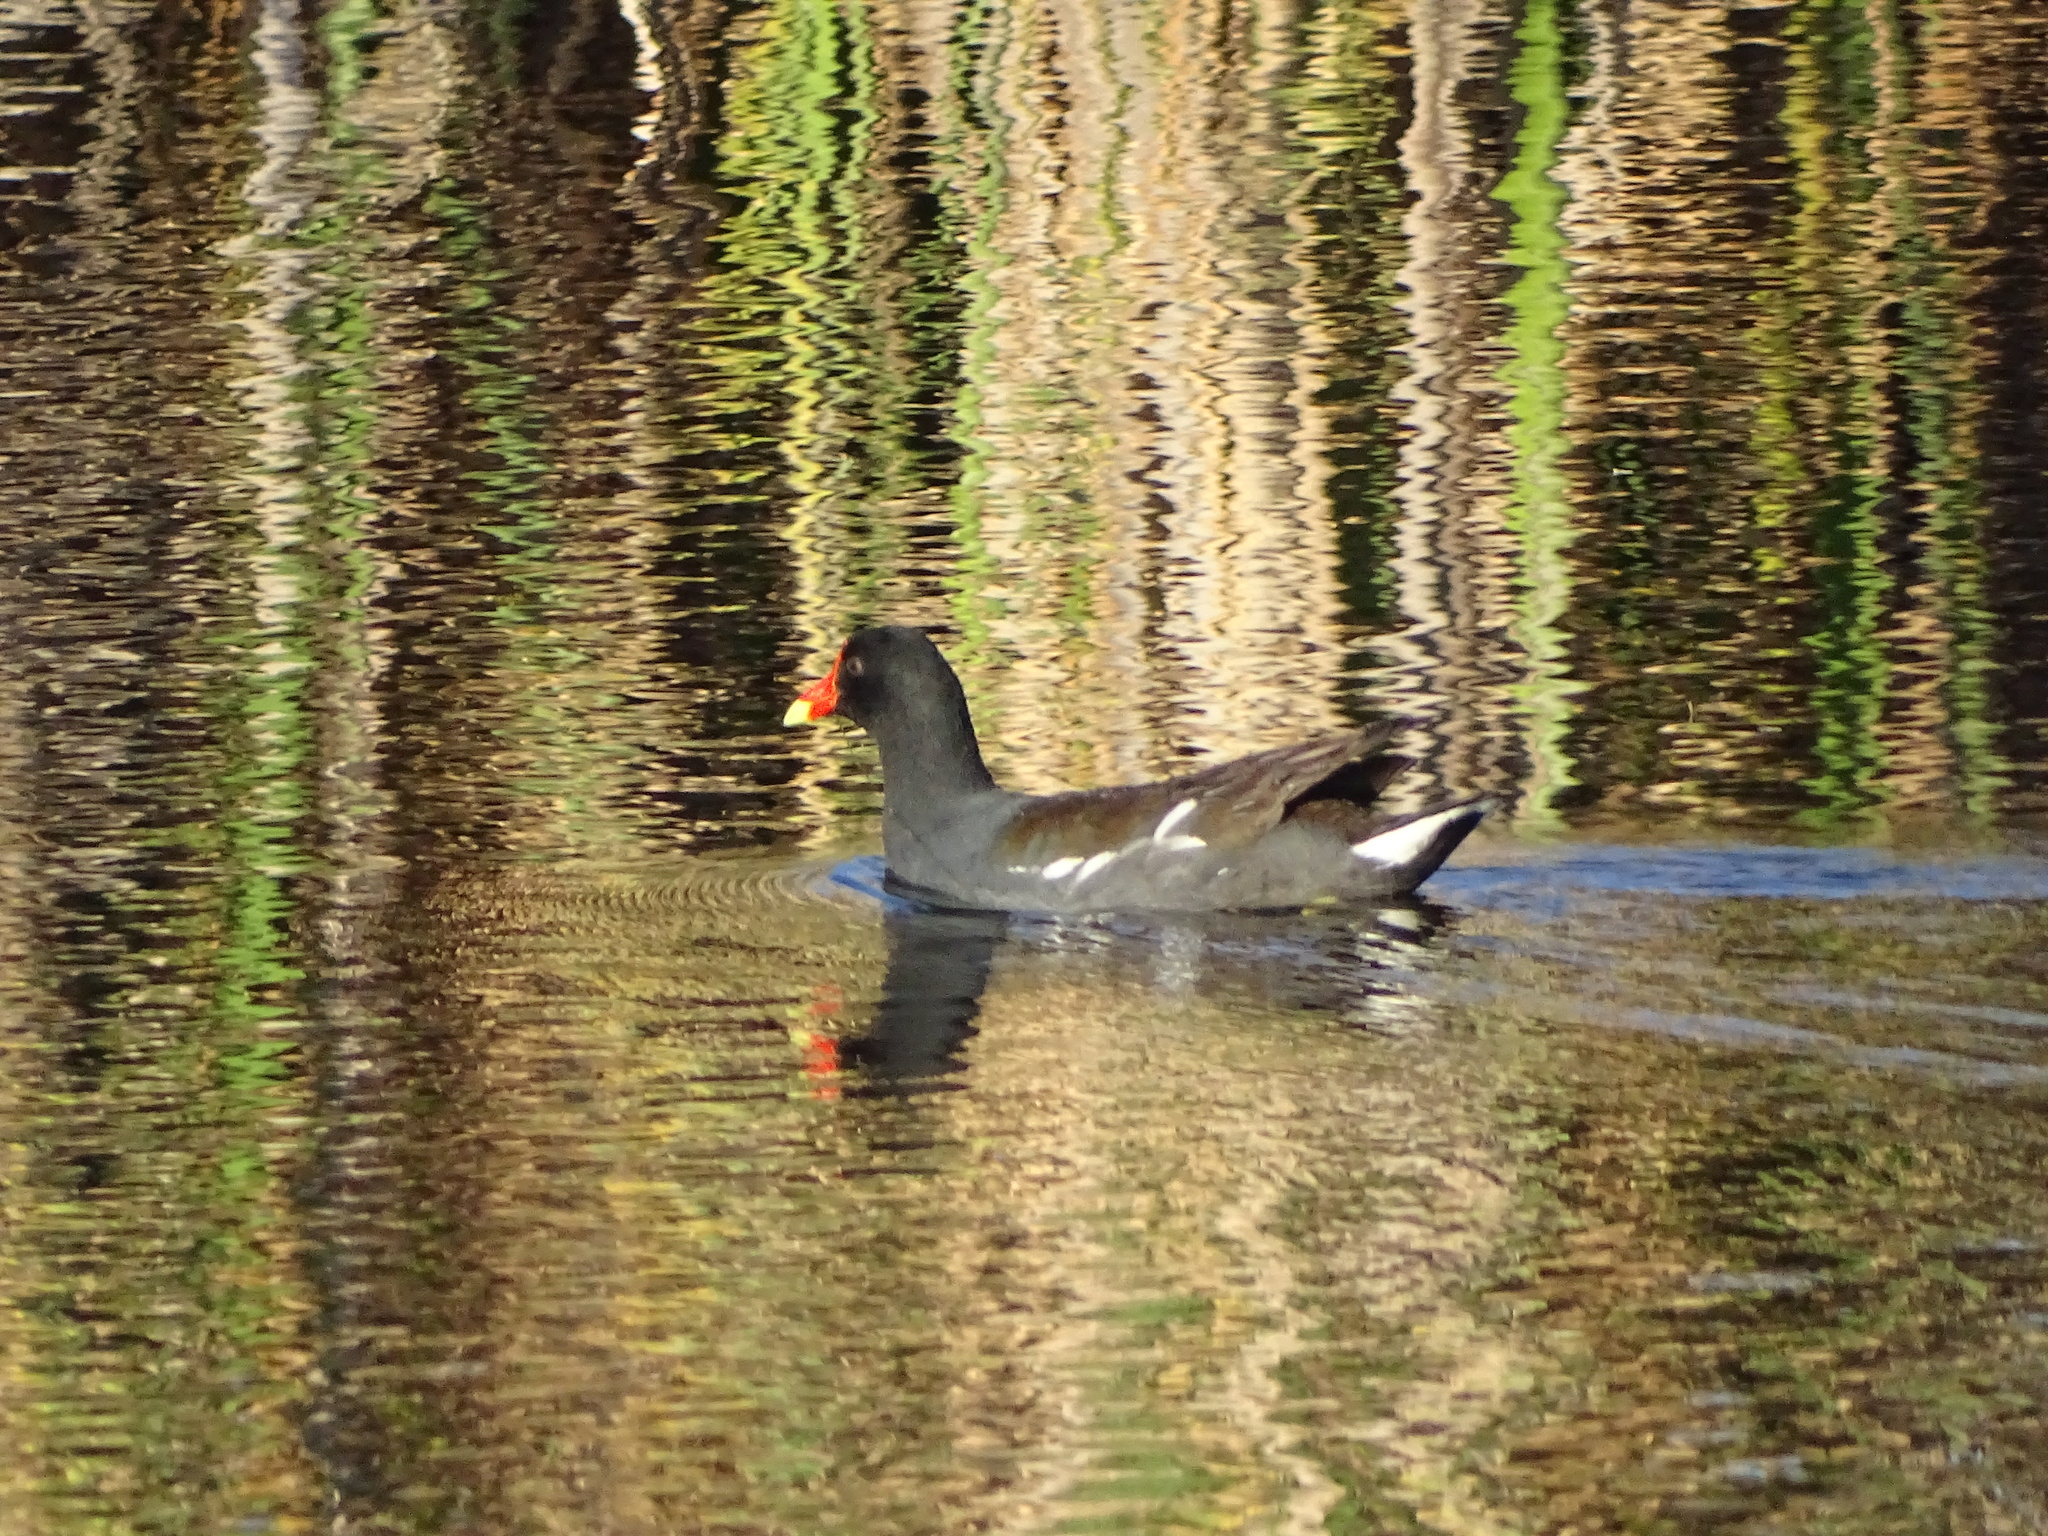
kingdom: Animalia
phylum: Chordata
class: Aves
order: Gruiformes
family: Rallidae
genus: Gallinula
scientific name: Gallinula chloropus
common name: Common moorhen
